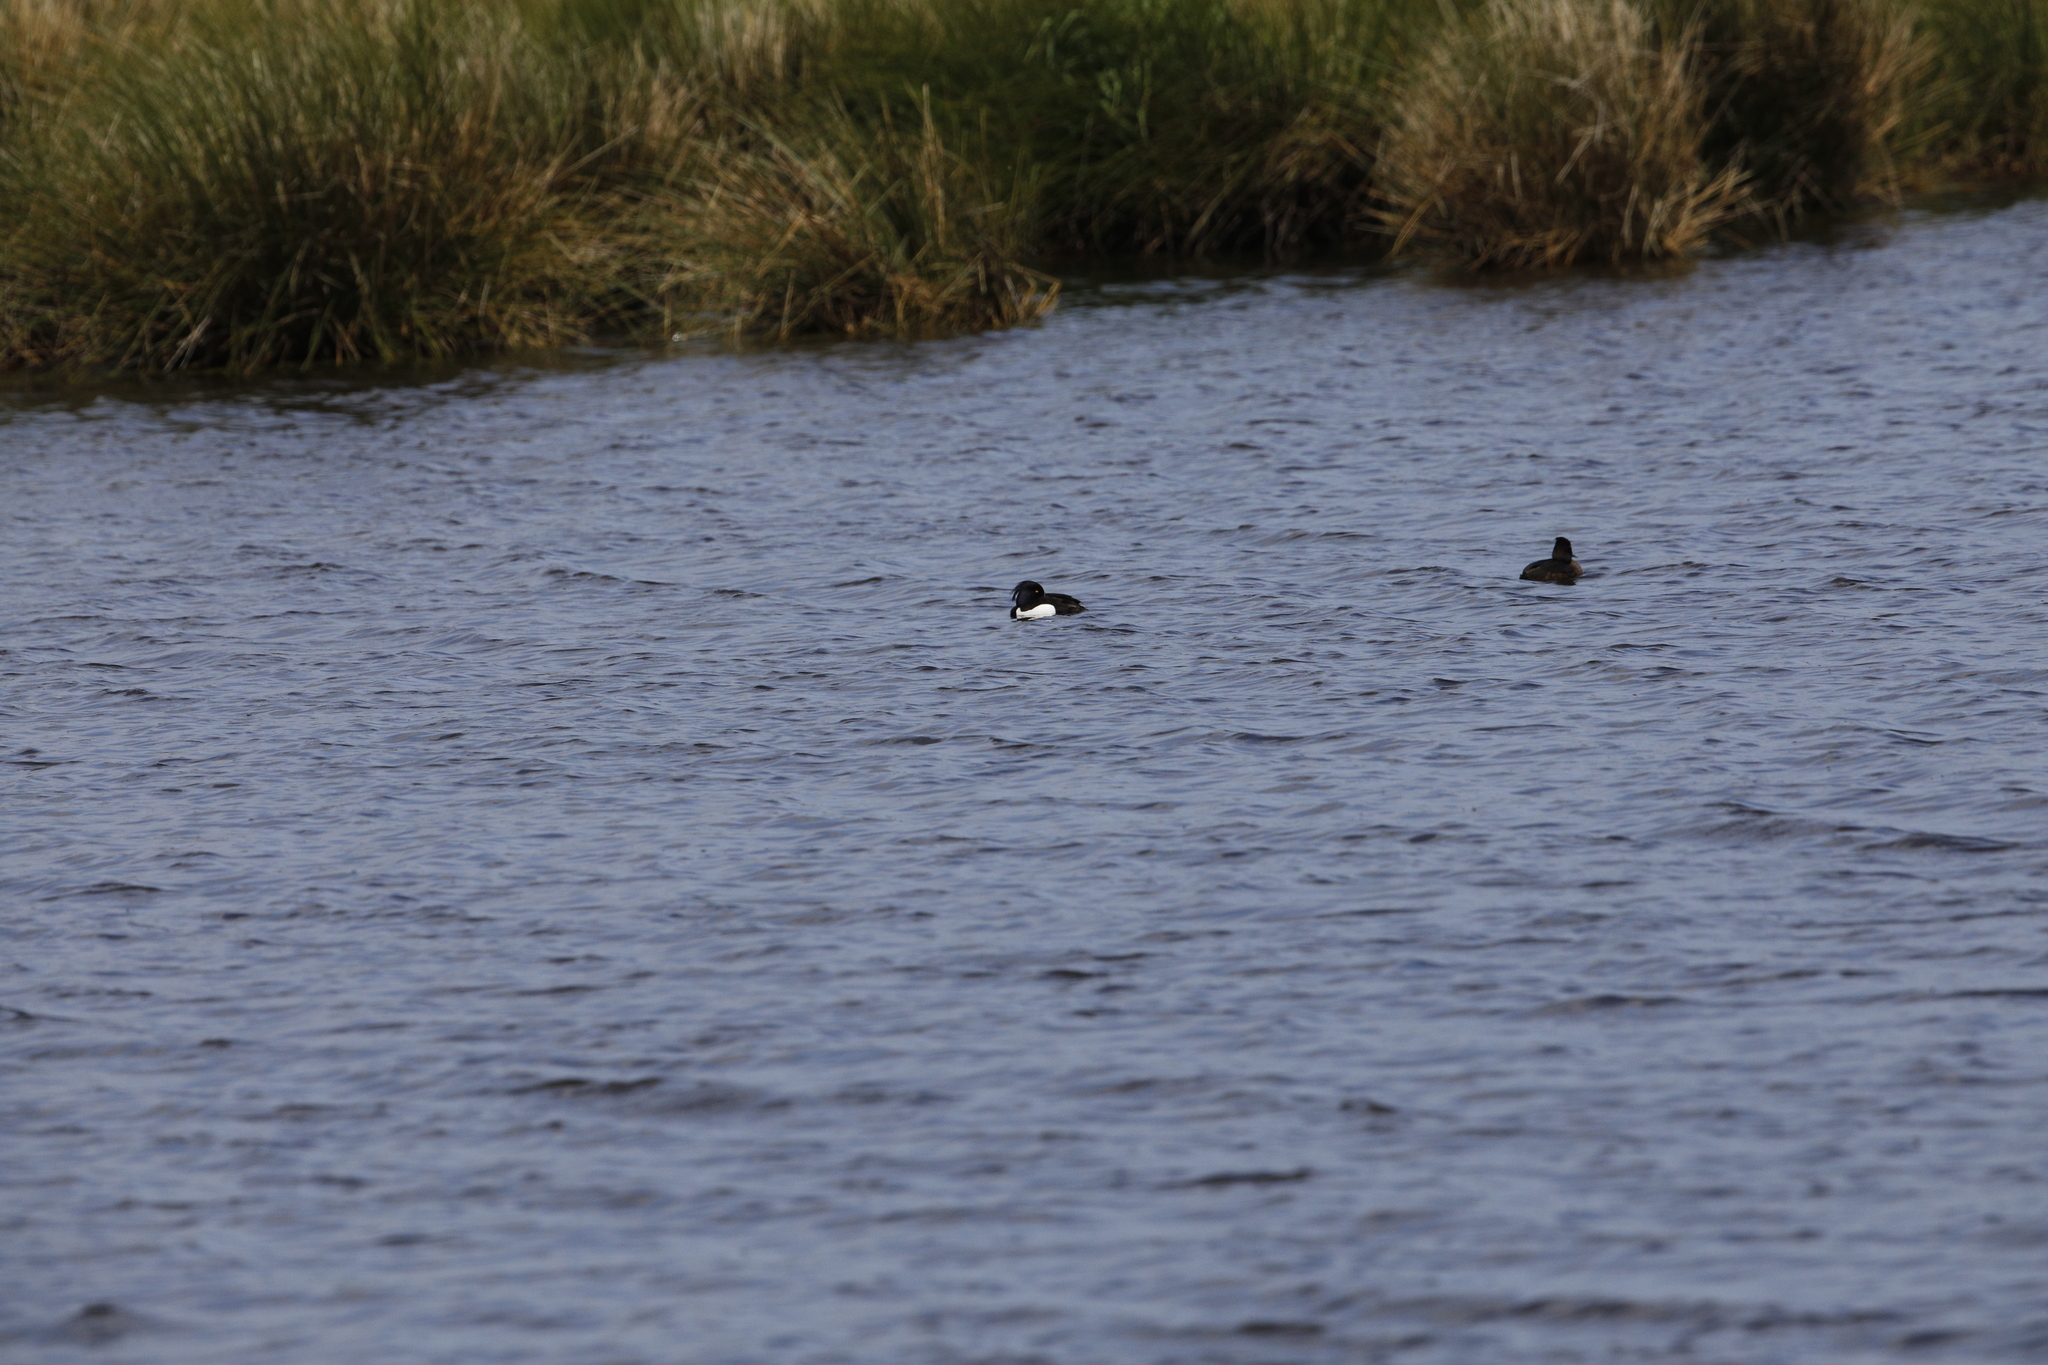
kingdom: Animalia
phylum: Chordata
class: Aves
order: Anseriformes
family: Anatidae
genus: Aythya
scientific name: Aythya fuligula
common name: Tufted duck
